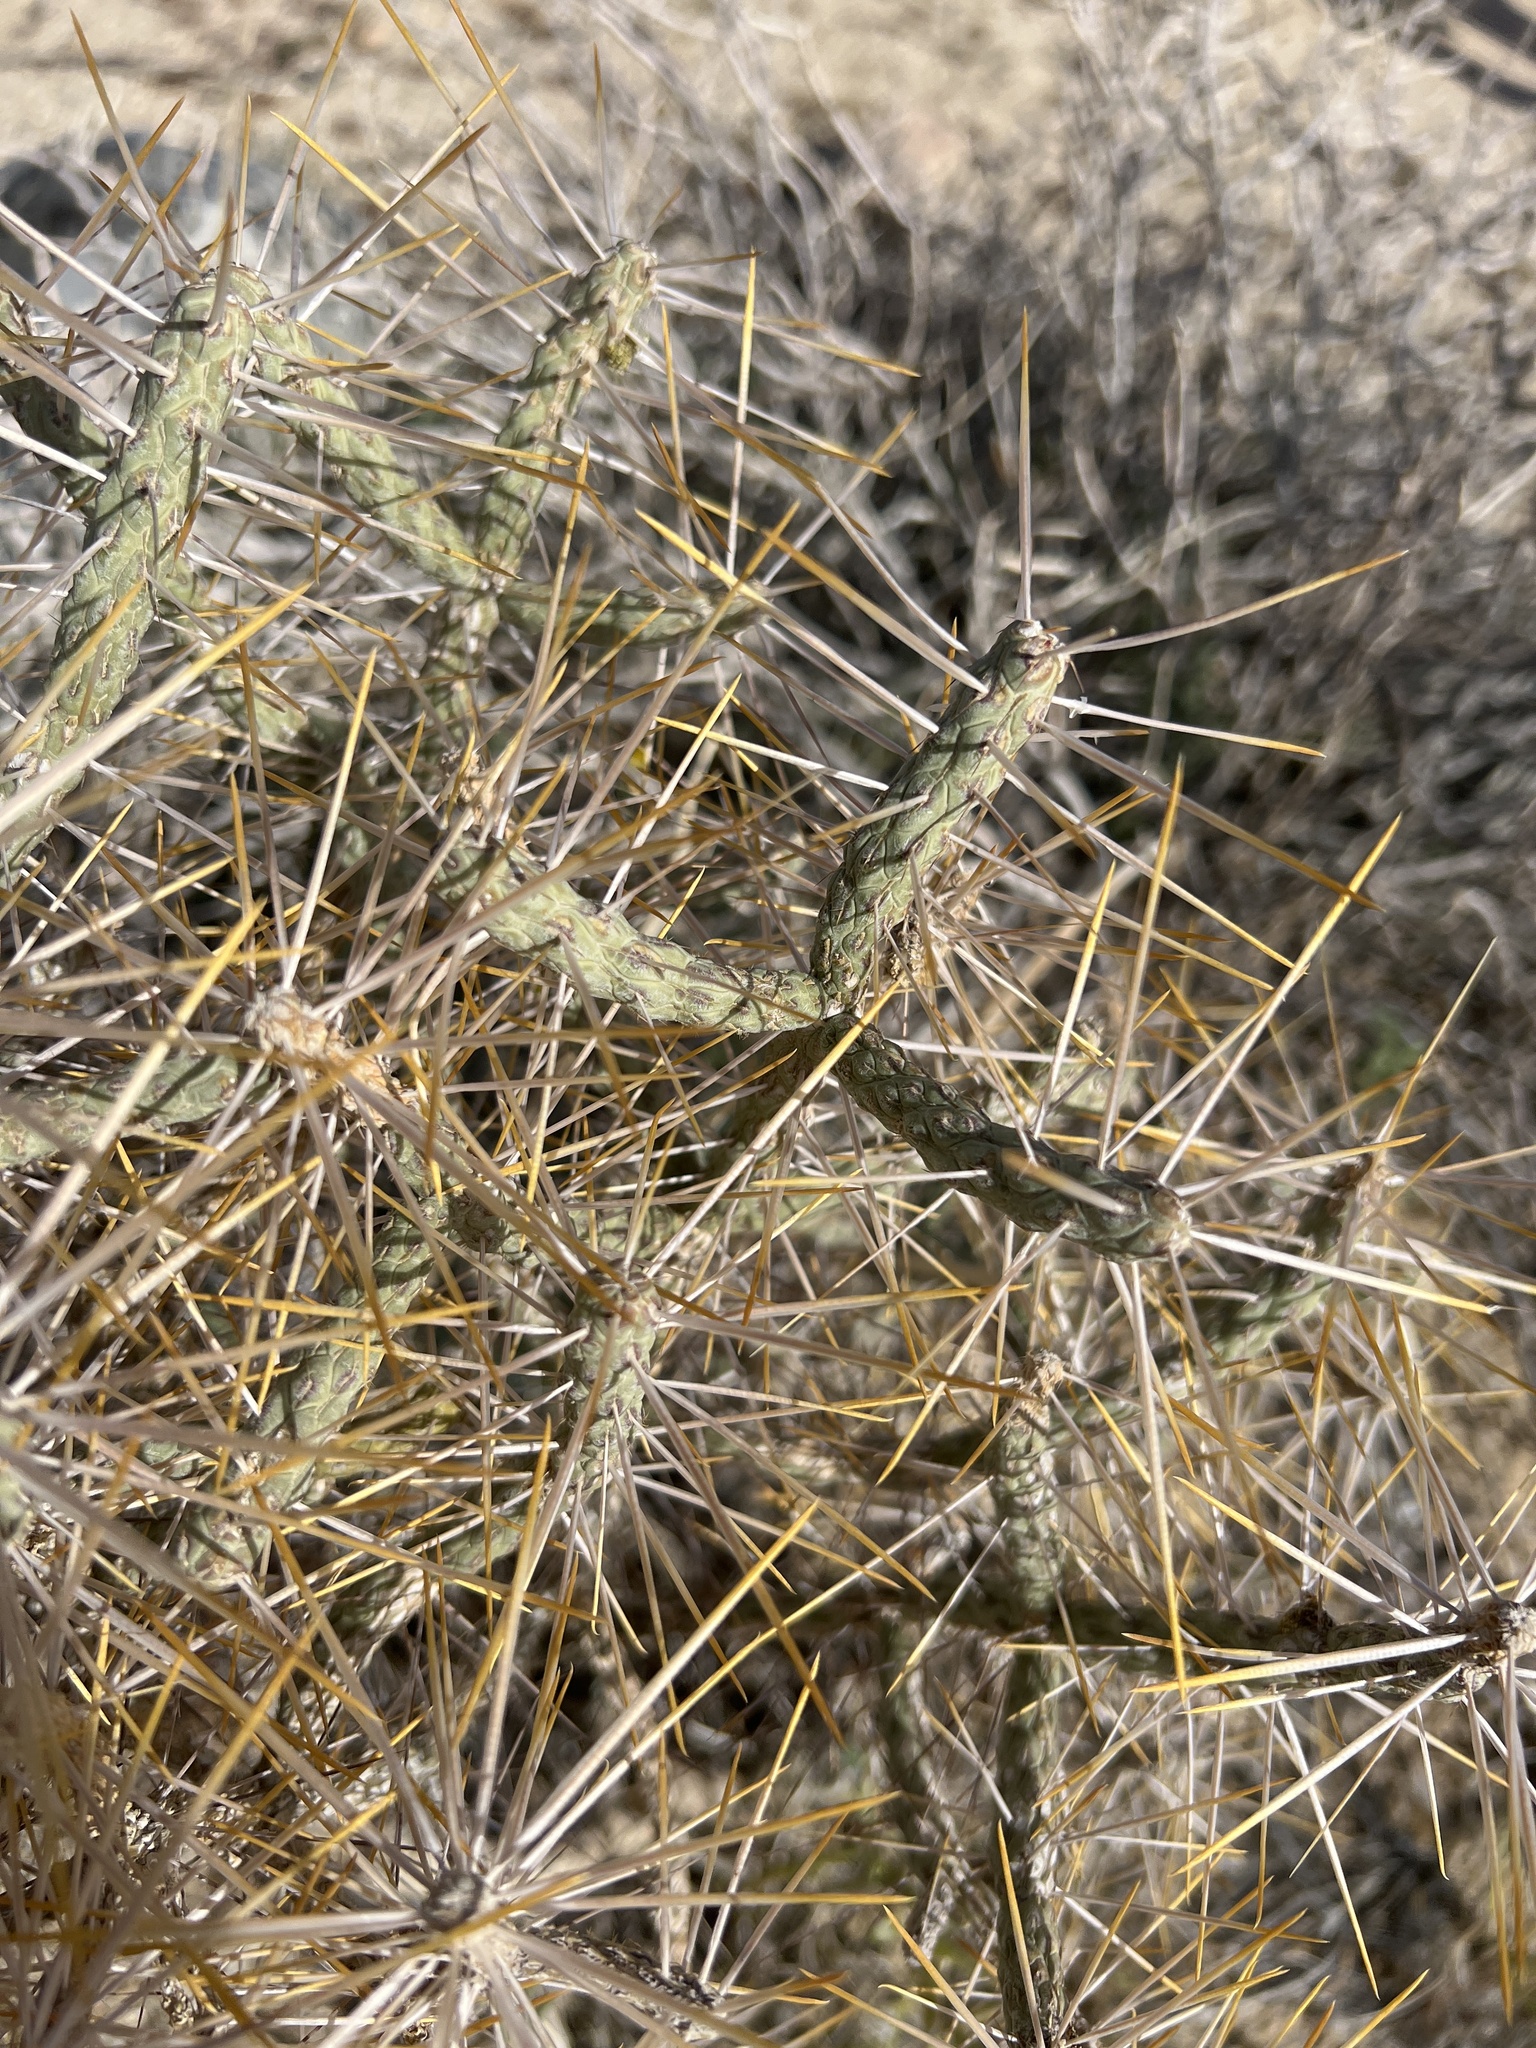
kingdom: Plantae
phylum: Tracheophyta
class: Magnoliopsida
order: Caryophyllales
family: Cactaceae
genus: Cylindropuntia
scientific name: Cylindropuntia ramosissima
